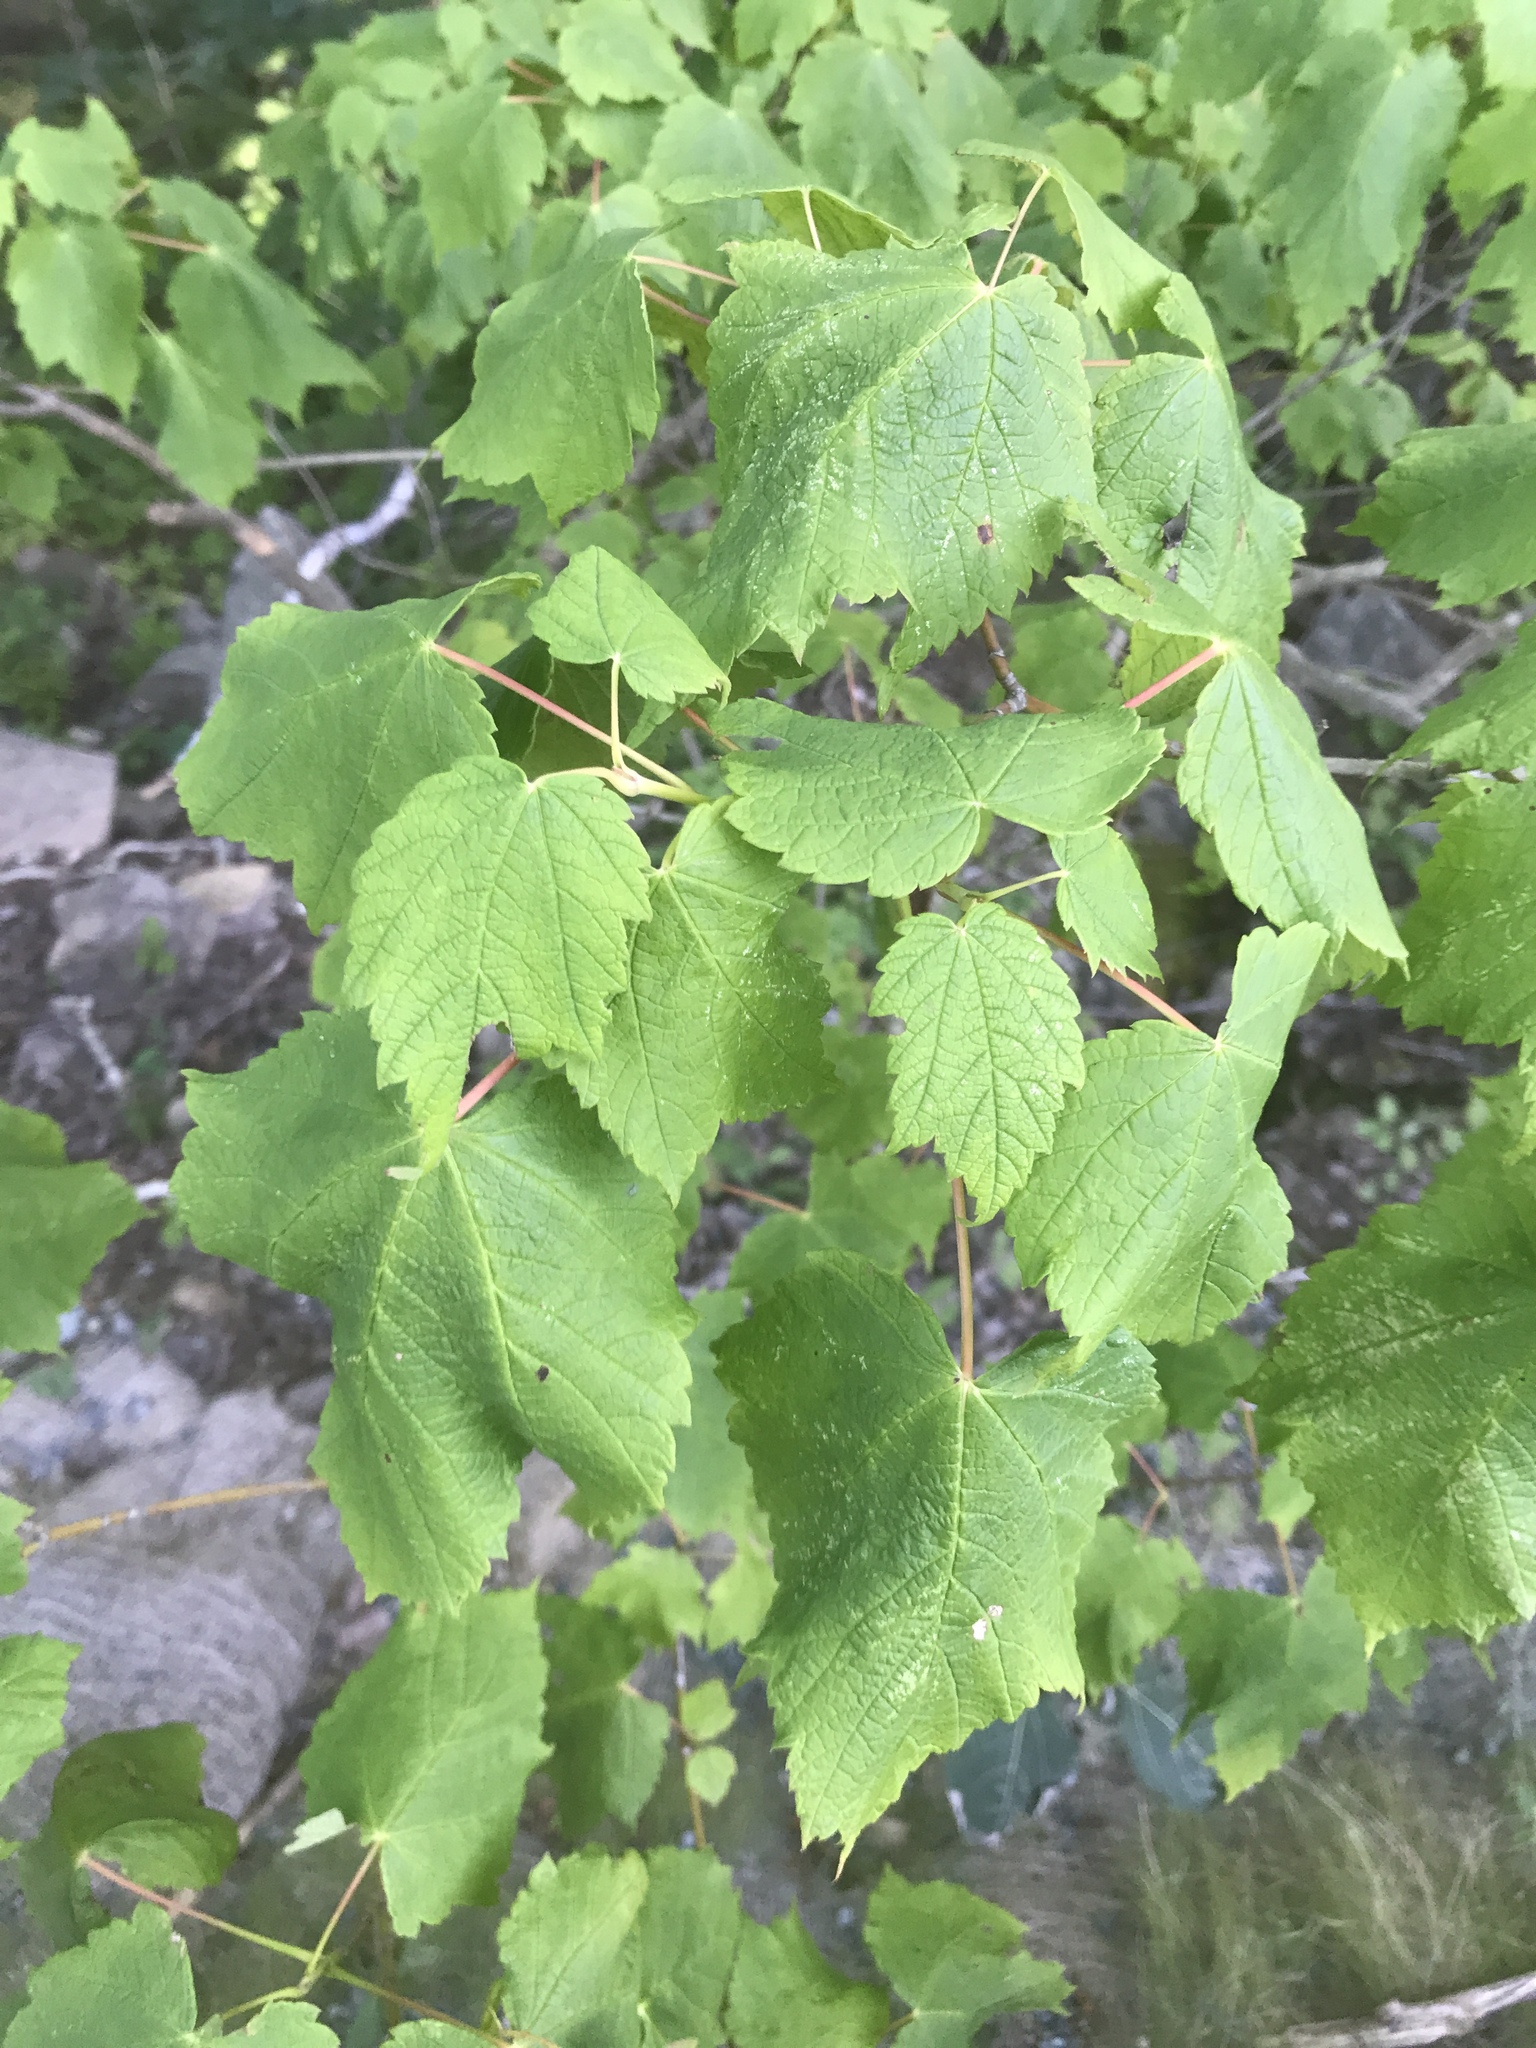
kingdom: Plantae
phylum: Tracheophyta
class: Magnoliopsida
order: Sapindales
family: Sapindaceae
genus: Acer
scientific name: Acer spicatum
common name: Mountain maple
